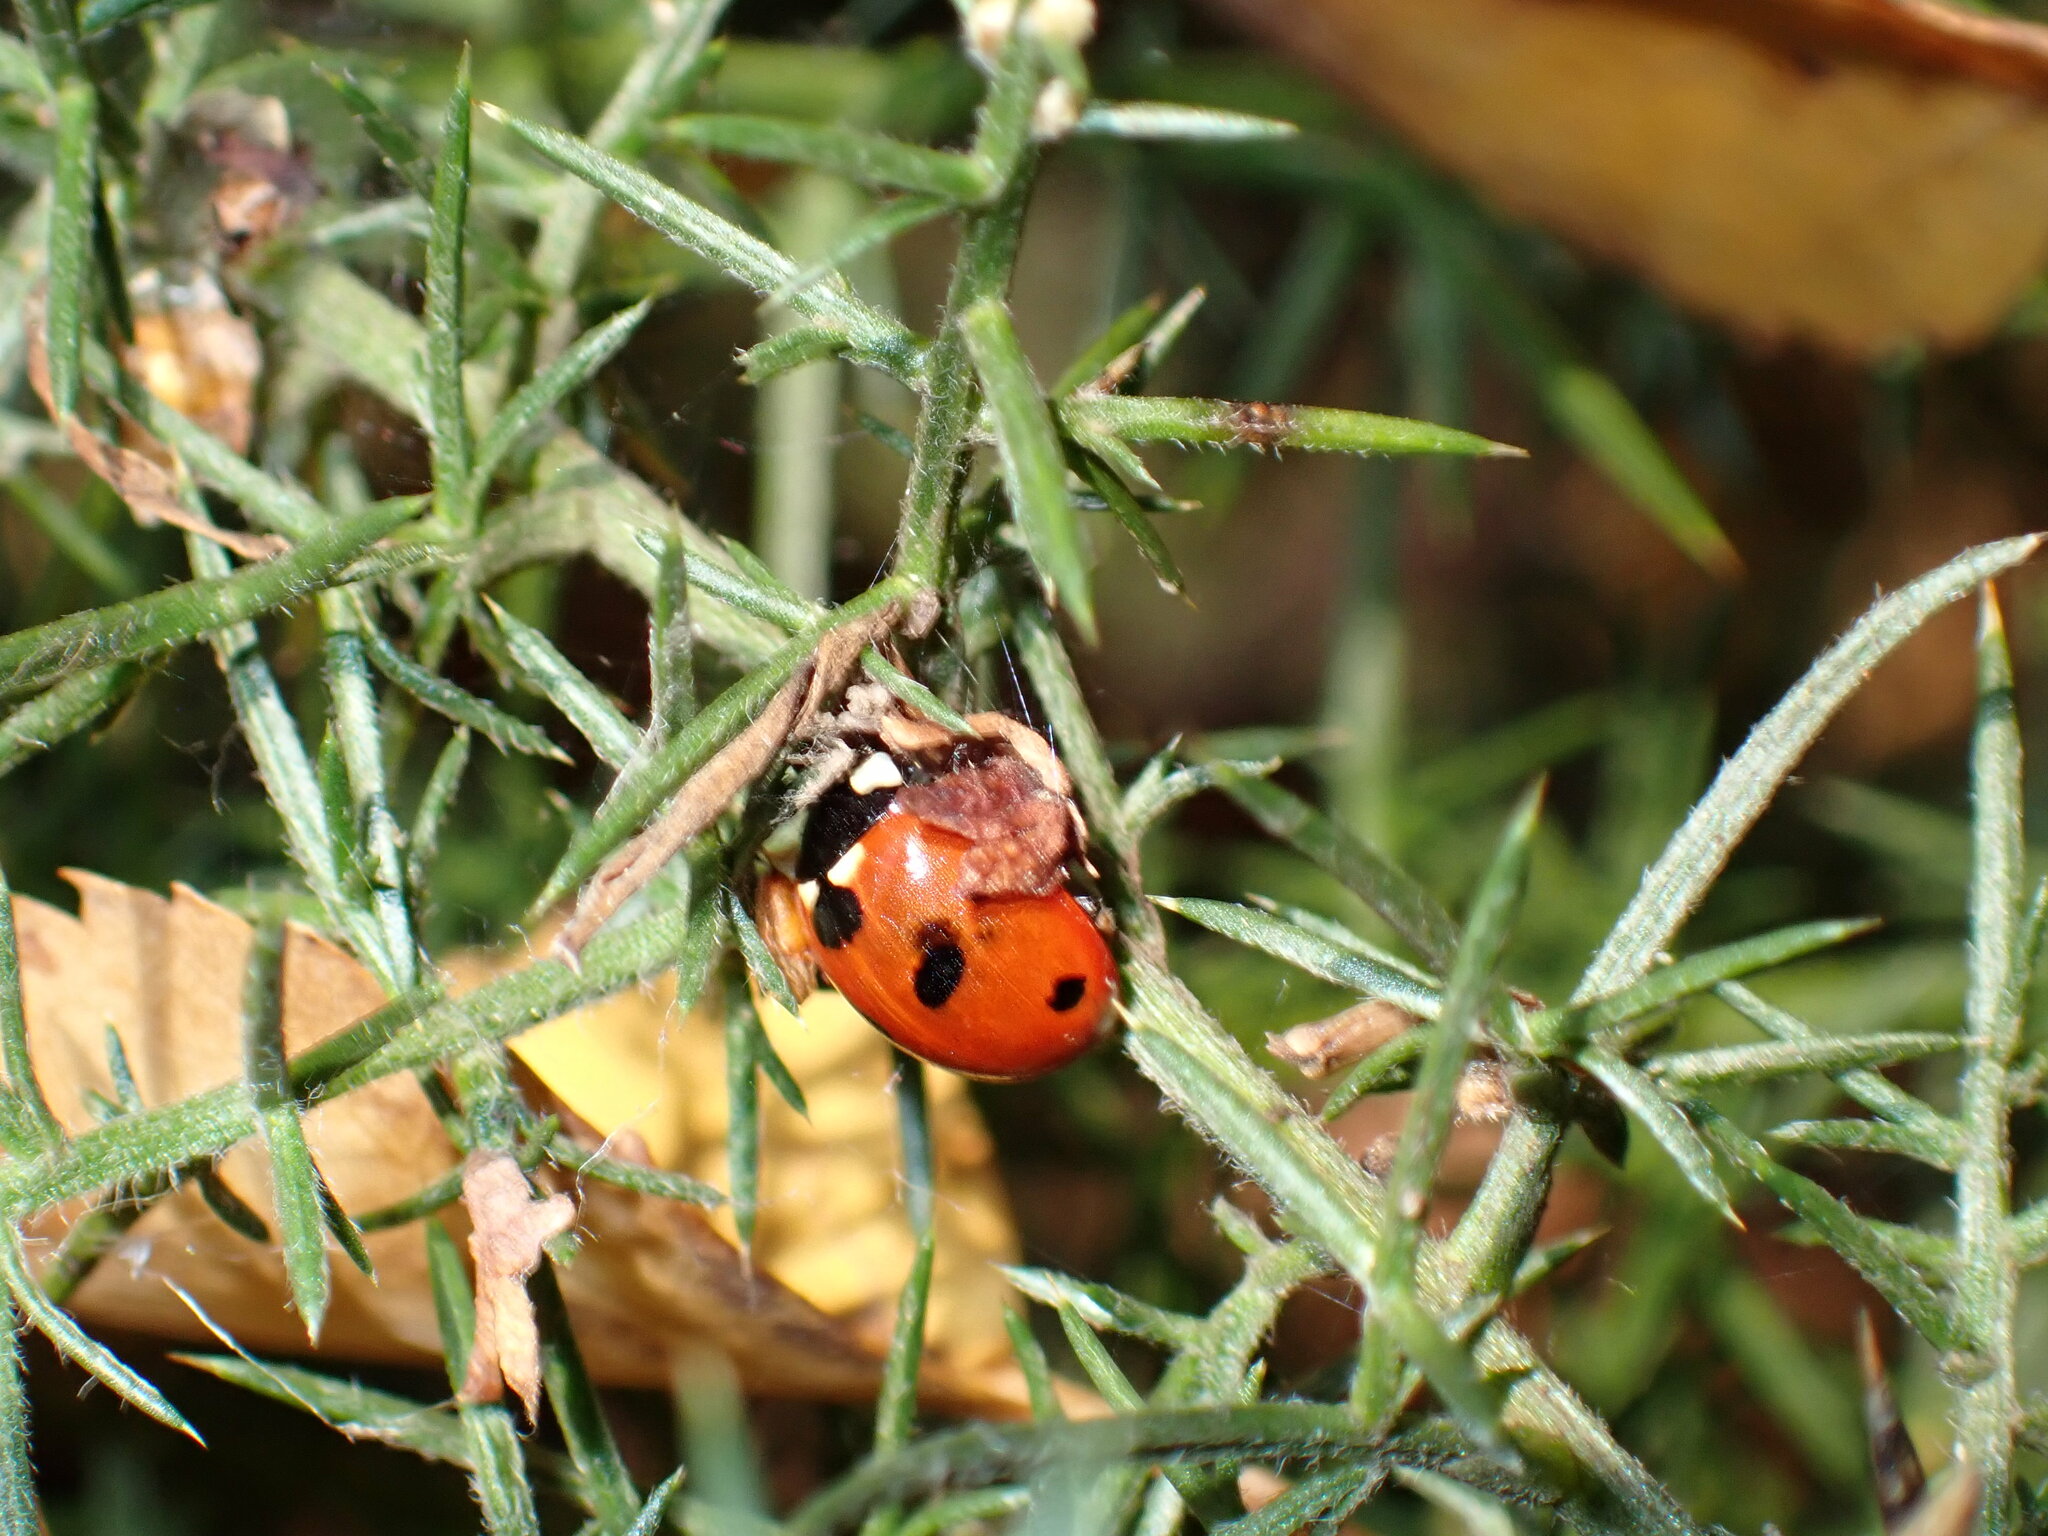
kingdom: Animalia
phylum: Arthropoda
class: Insecta
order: Coleoptera
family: Coccinellidae
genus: Coccinella
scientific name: Coccinella septempunctata
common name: Sevenspotted lady beetle
